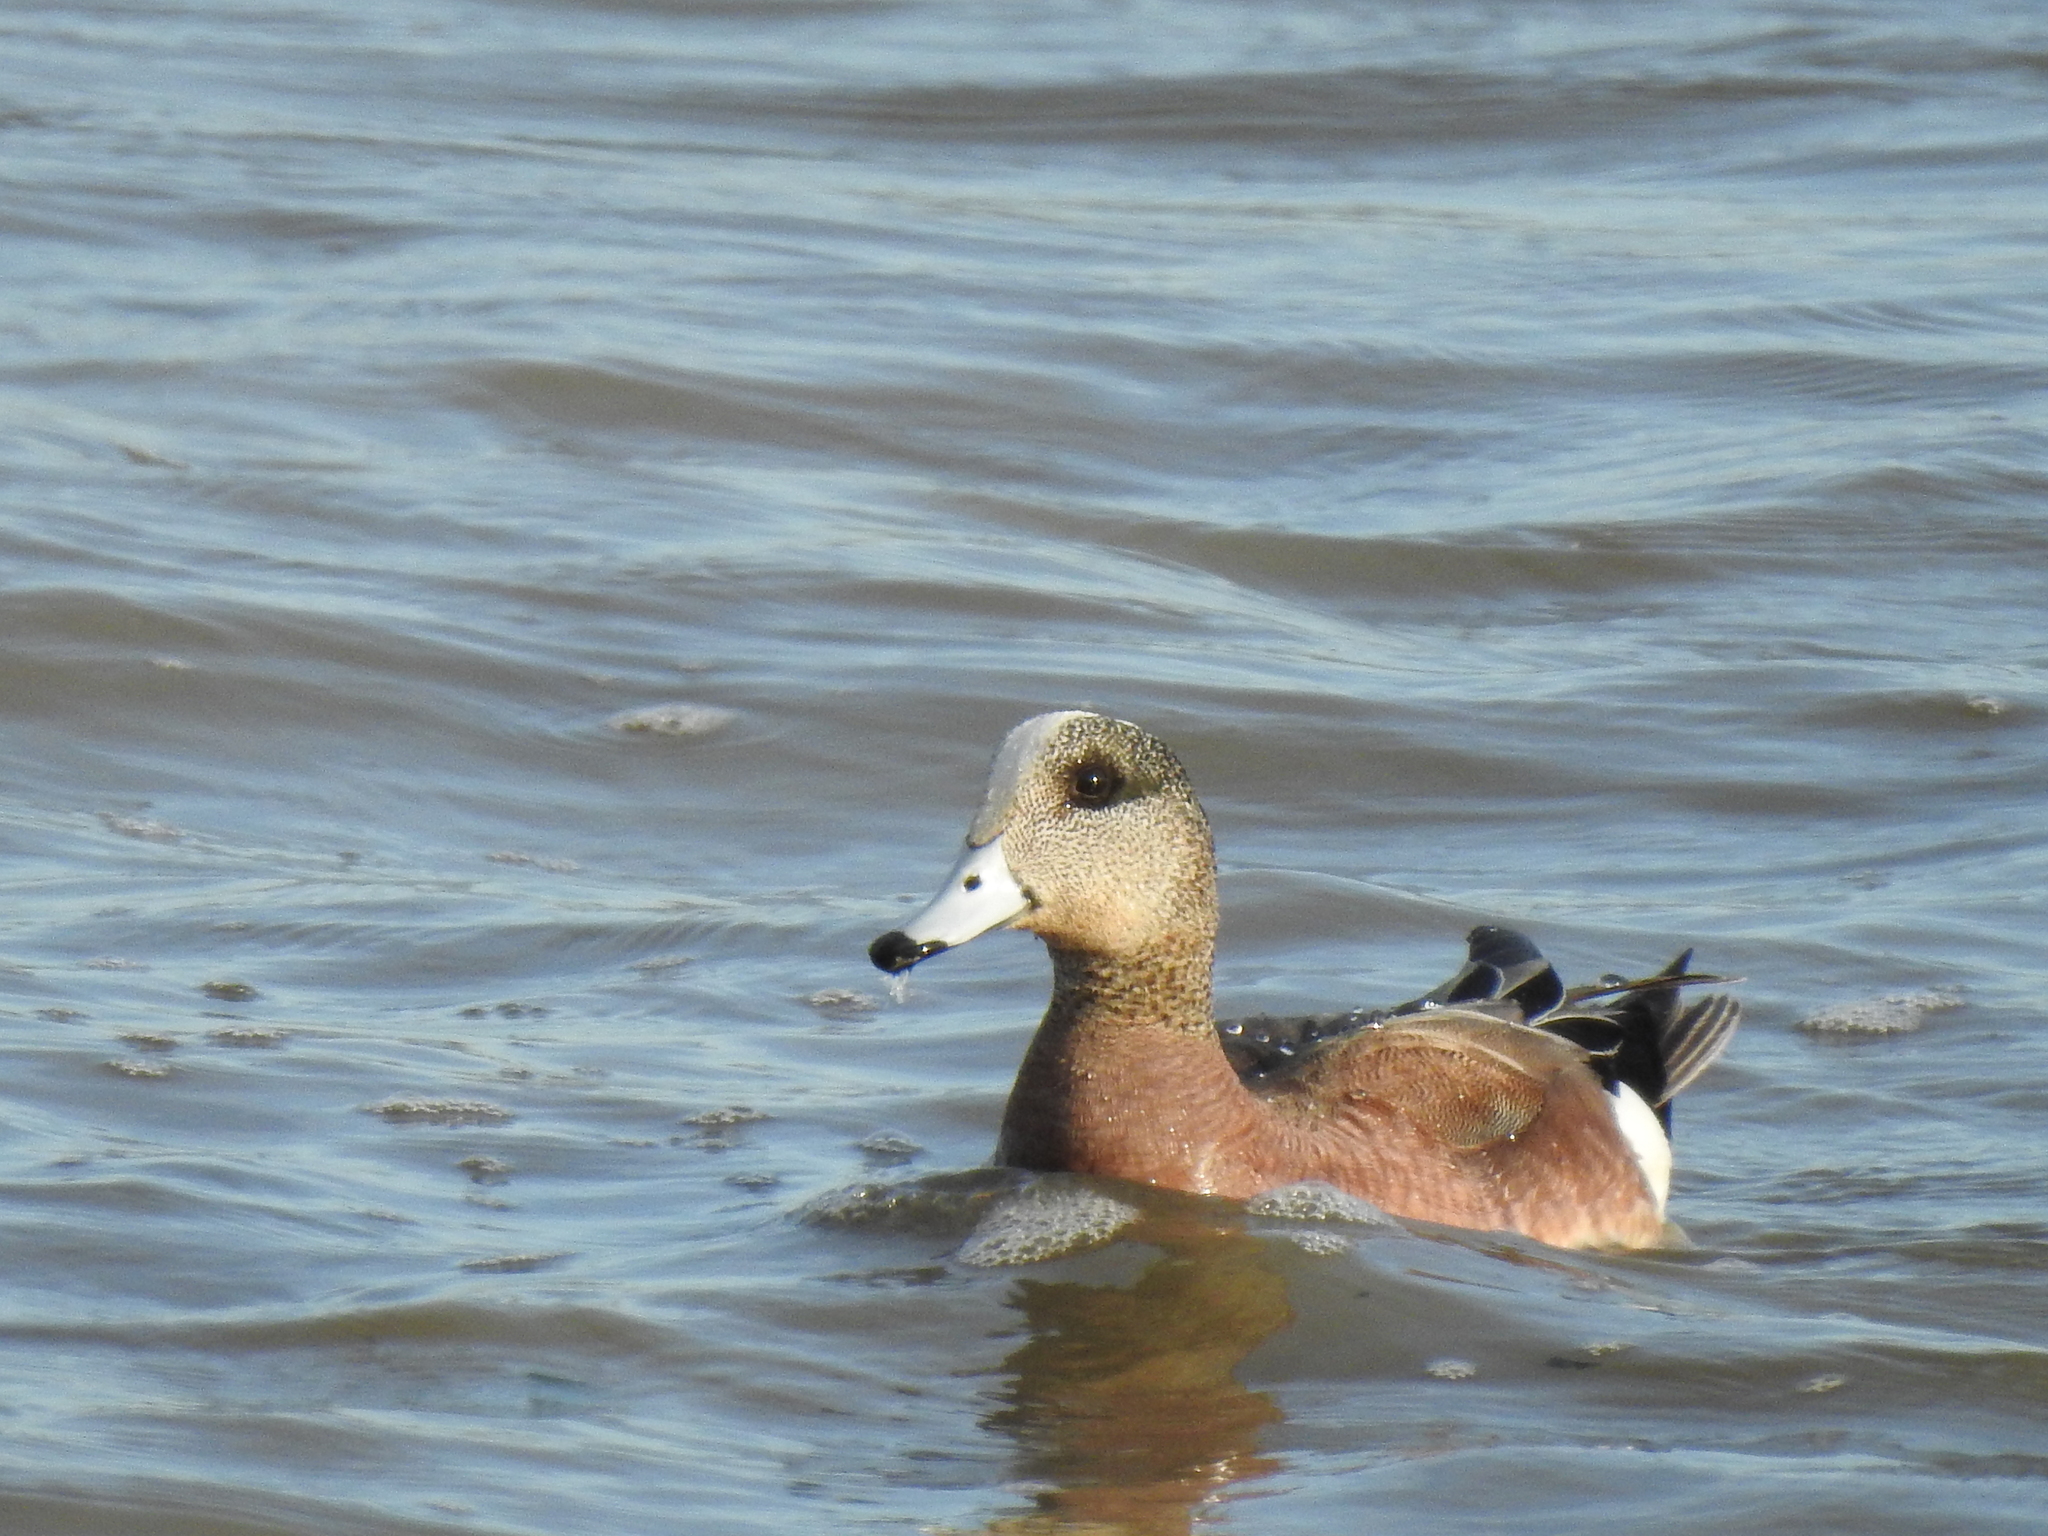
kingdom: Animalia
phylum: Chordata
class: Aves
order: Anseriformes
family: Anatidae
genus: Mareca
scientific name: Mareca americana
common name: American wigeon
